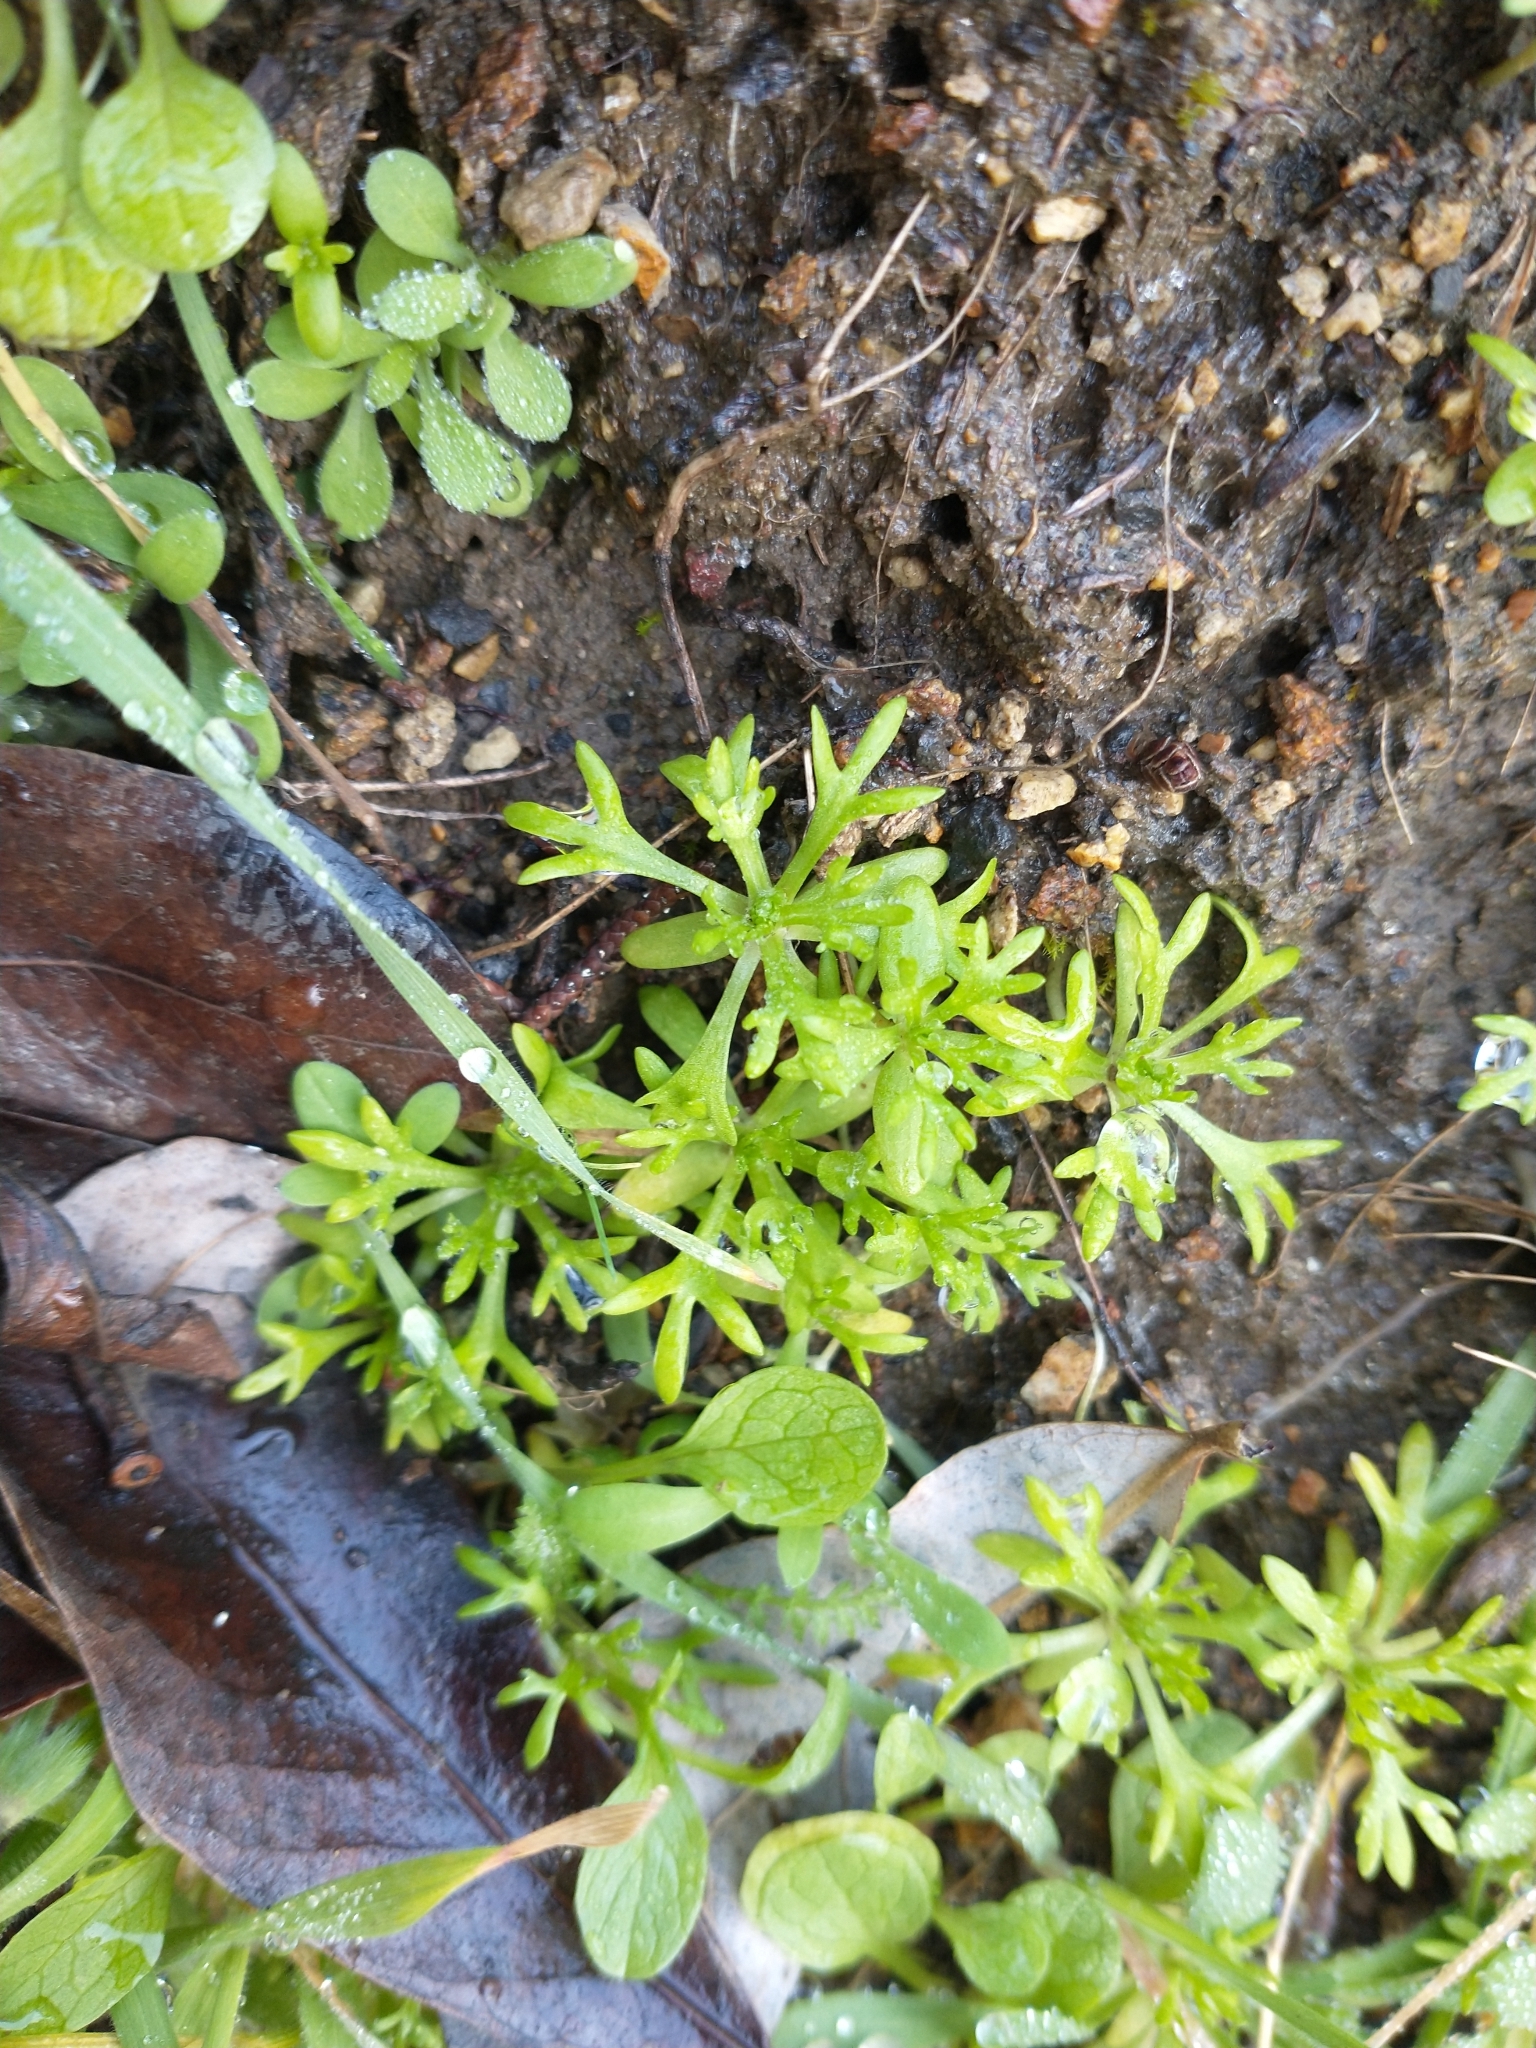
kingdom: Plantae
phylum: Tracheophyta
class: Magnoliopsida
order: Ranunculales
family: Ranunculaceae
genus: Ceratocephala
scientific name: Ceratocephala orthoceras
